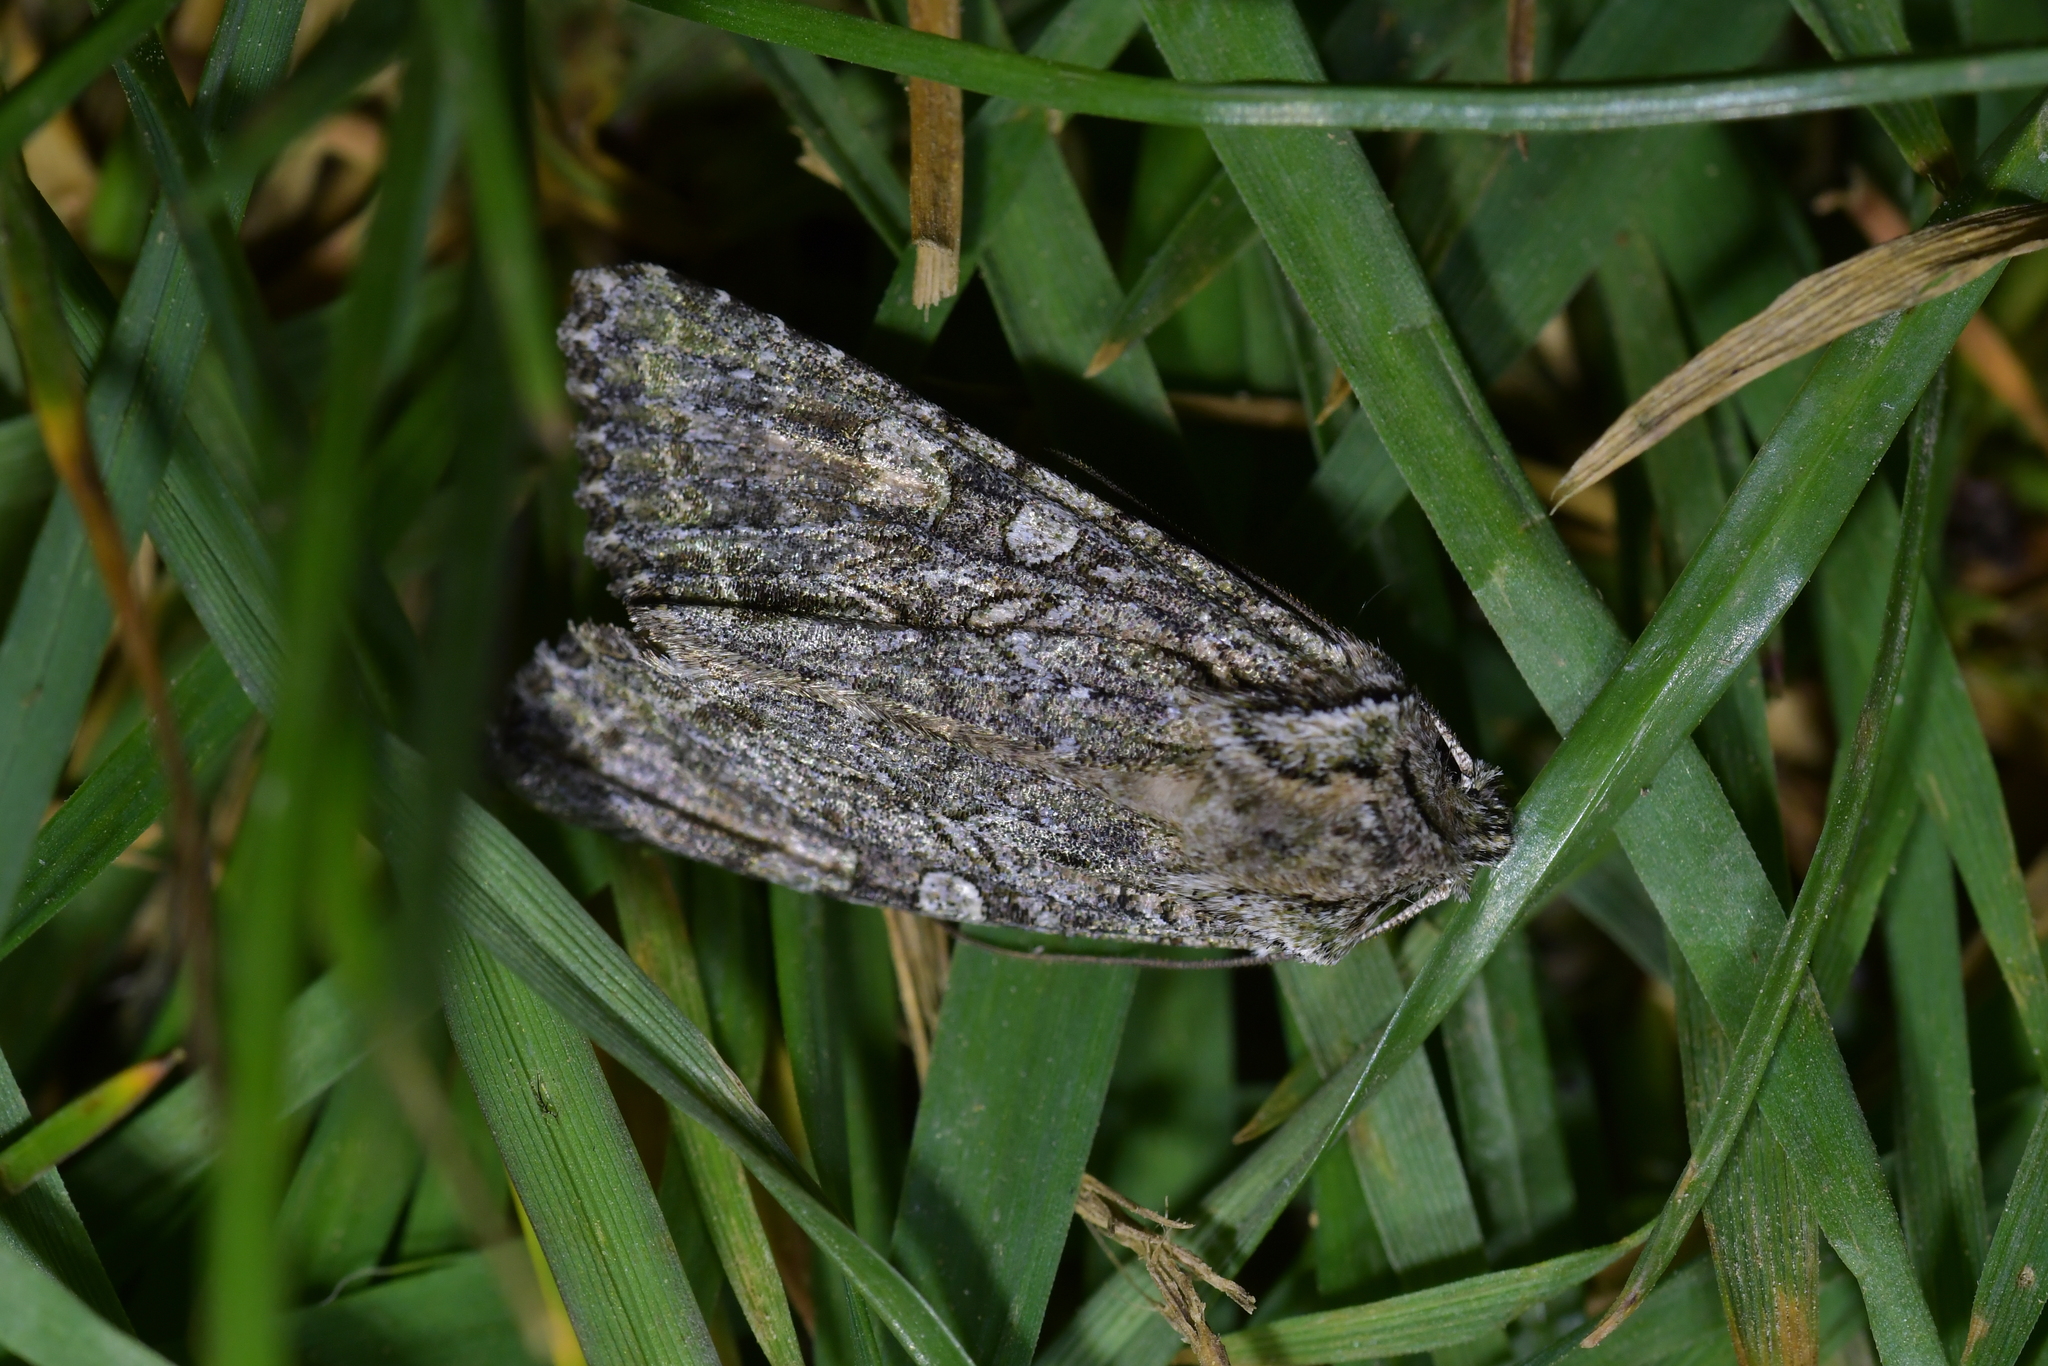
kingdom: Animalia
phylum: Arthropoda
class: Insecta
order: Lepidoptera
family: Noctuidae
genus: Ichneutica
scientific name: Ichneutica mutans
